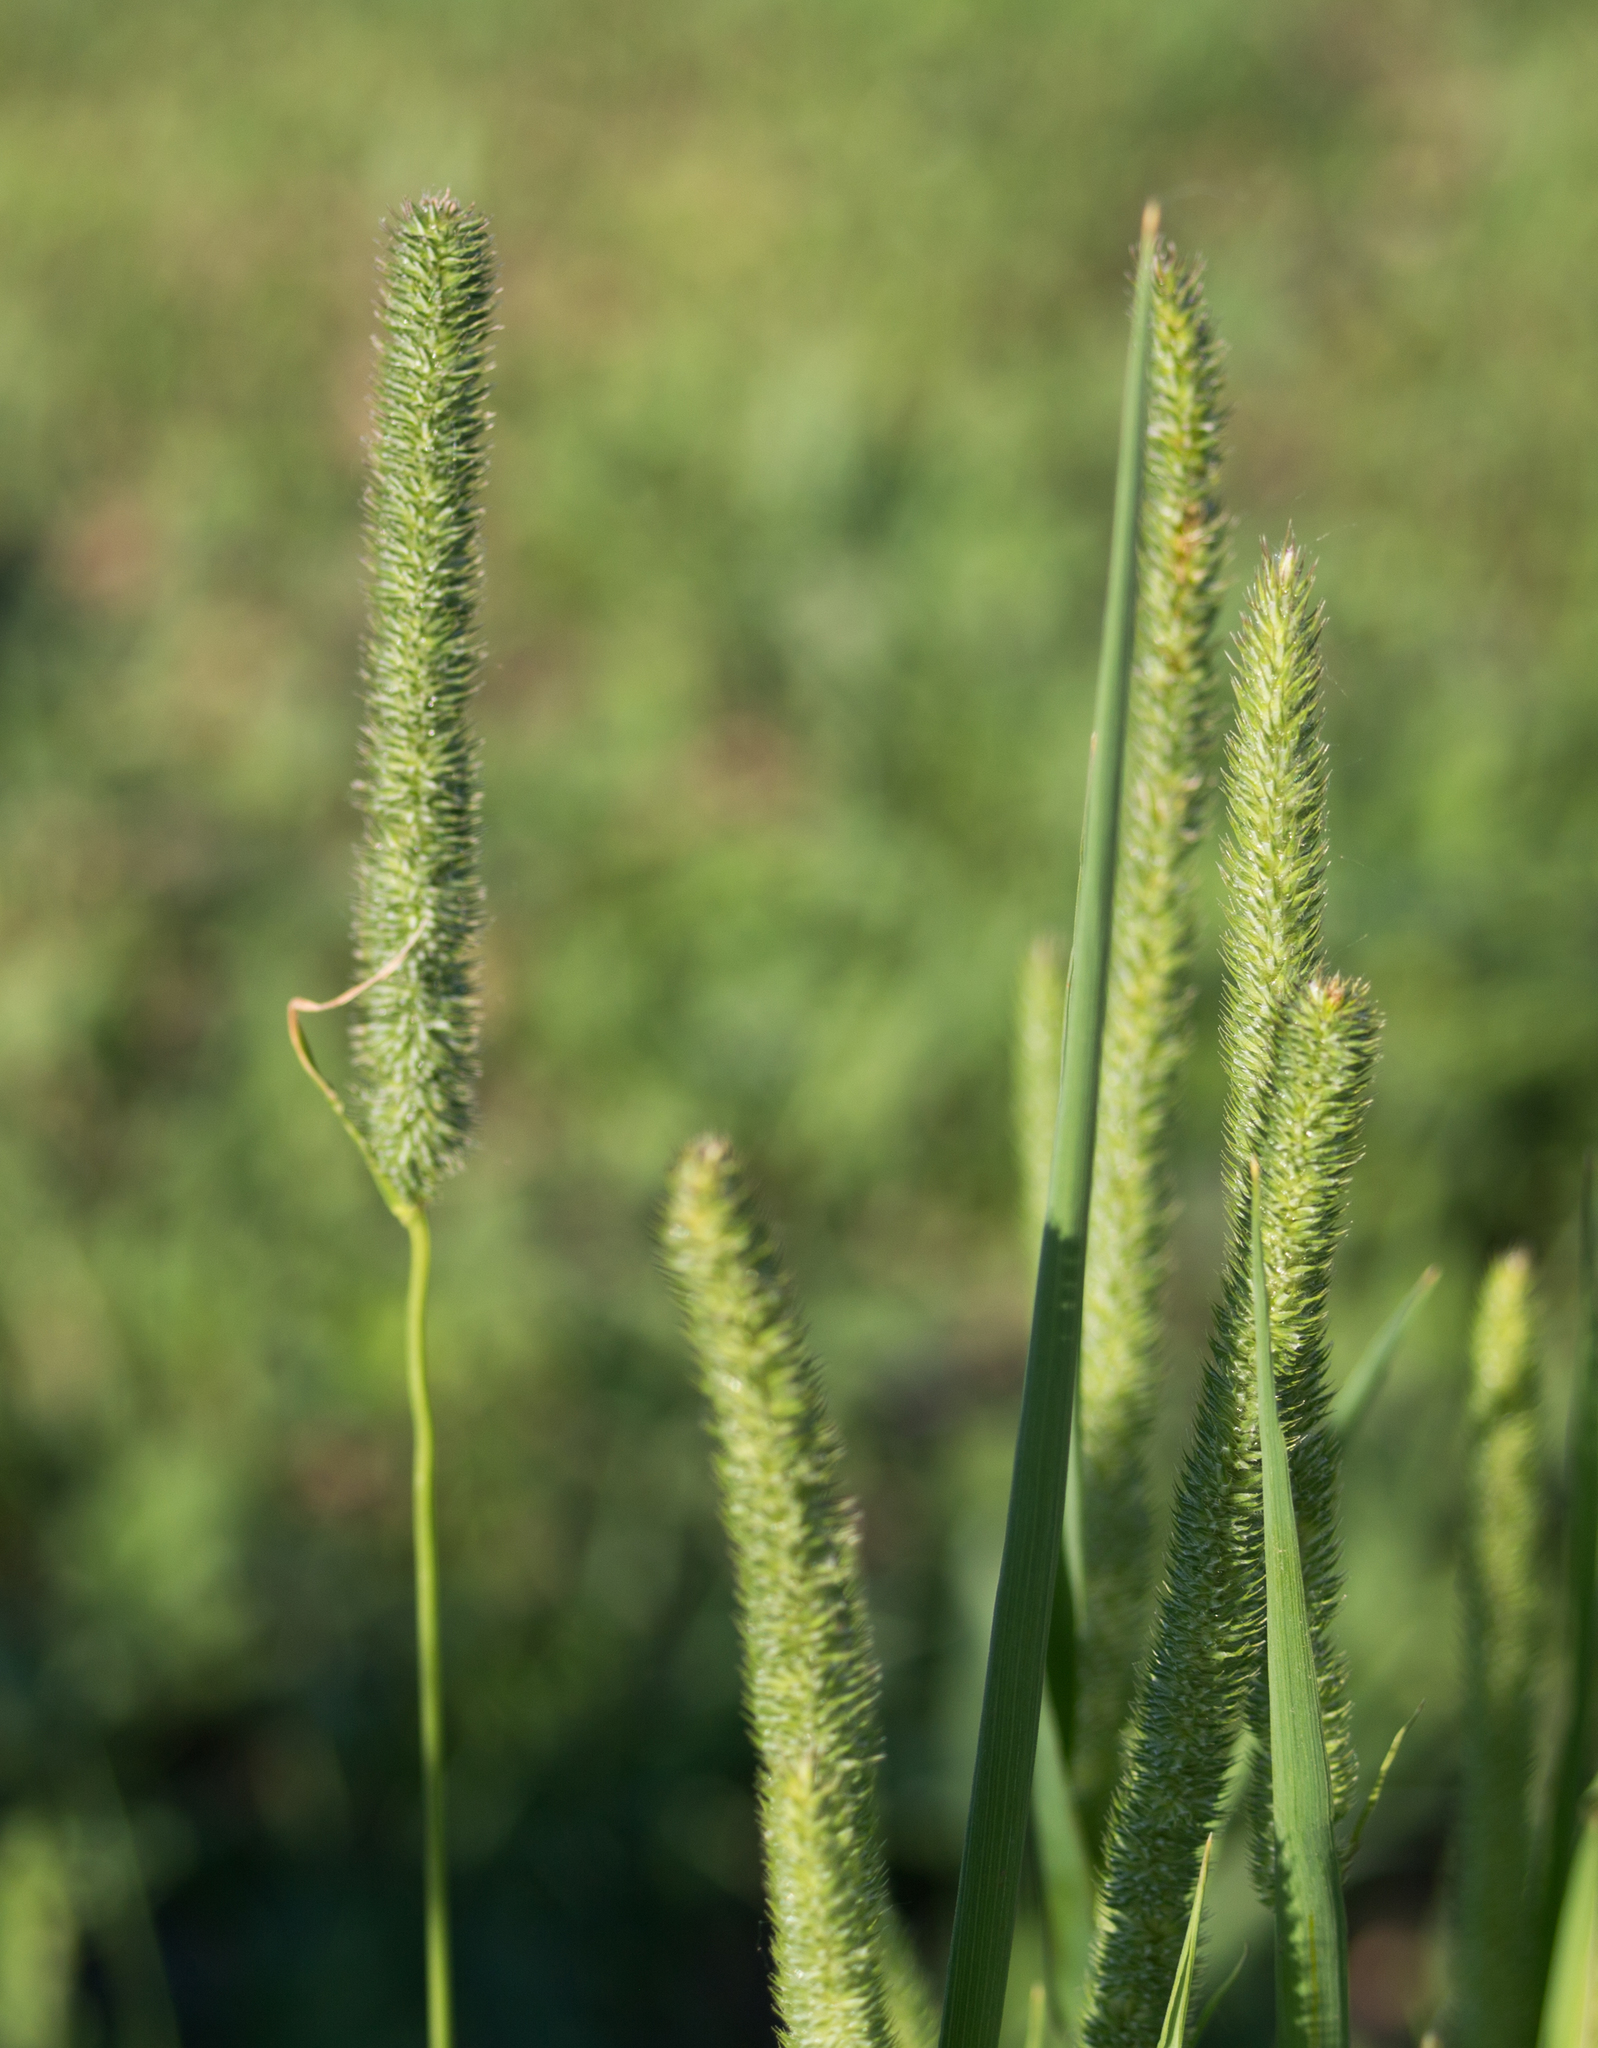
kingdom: Plantae
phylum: Tracheophyta
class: Liliopsida
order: Poales
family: Poaceae
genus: Phleum
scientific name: Phleum pratense
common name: Timothy grass
